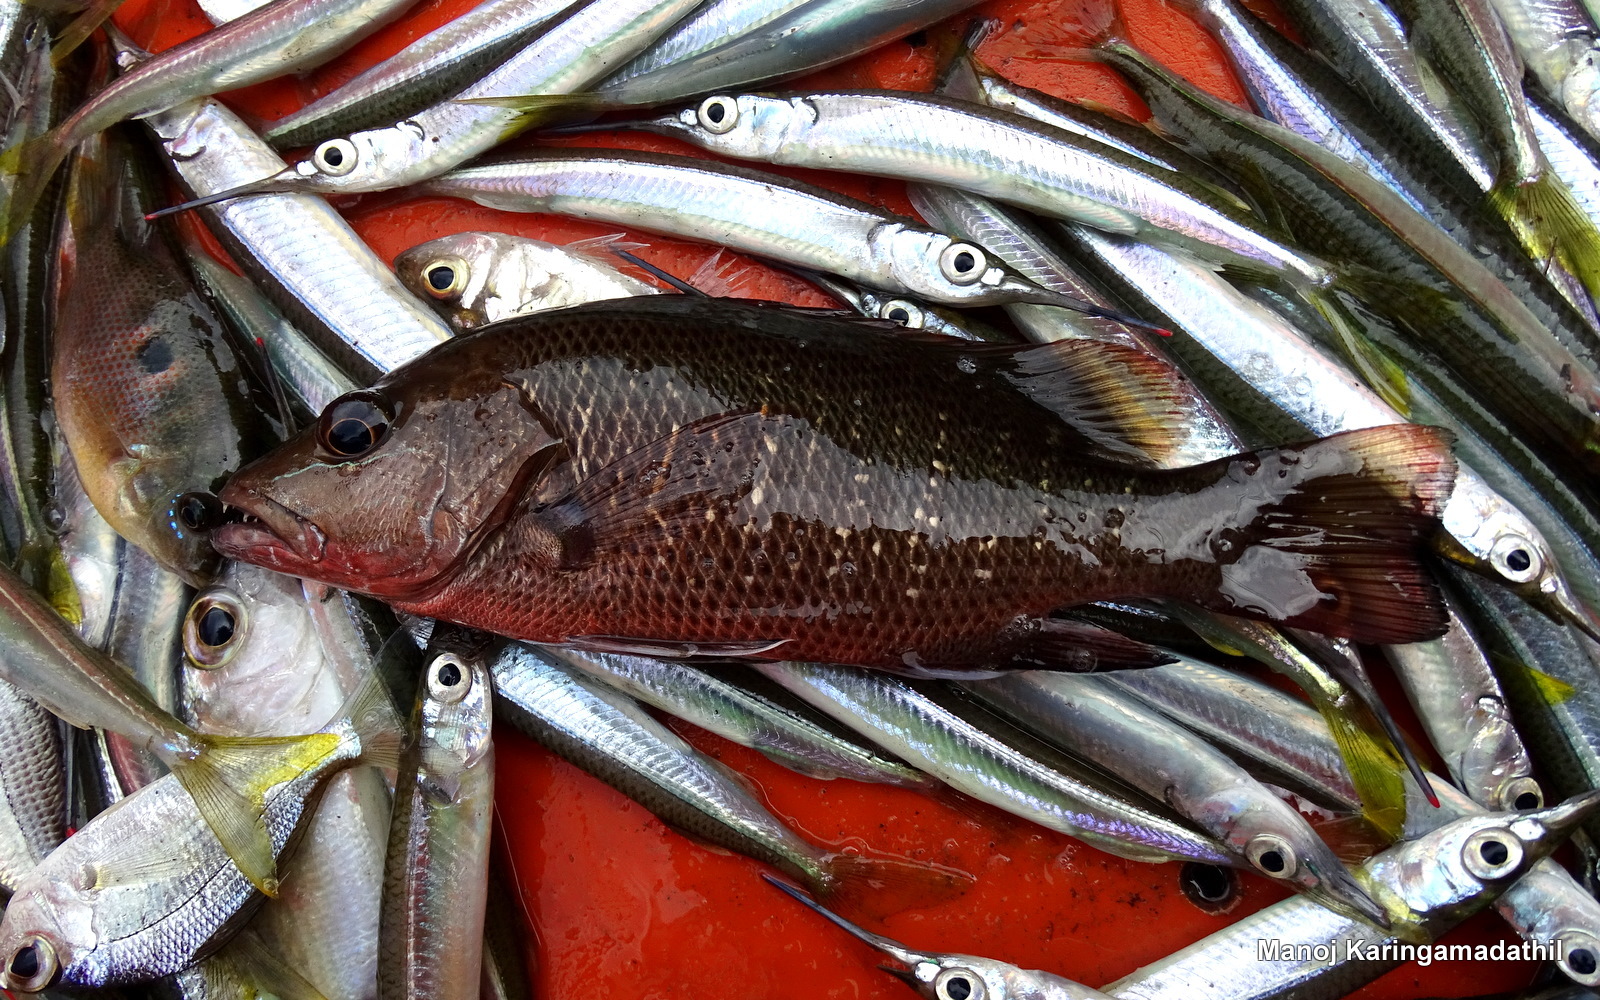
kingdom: Animalia
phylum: Chordata
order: Perciformes
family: Lutjanidae
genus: Lutjanus
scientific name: Lutjanus argentimaculatus
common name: Mangrove red snapper
